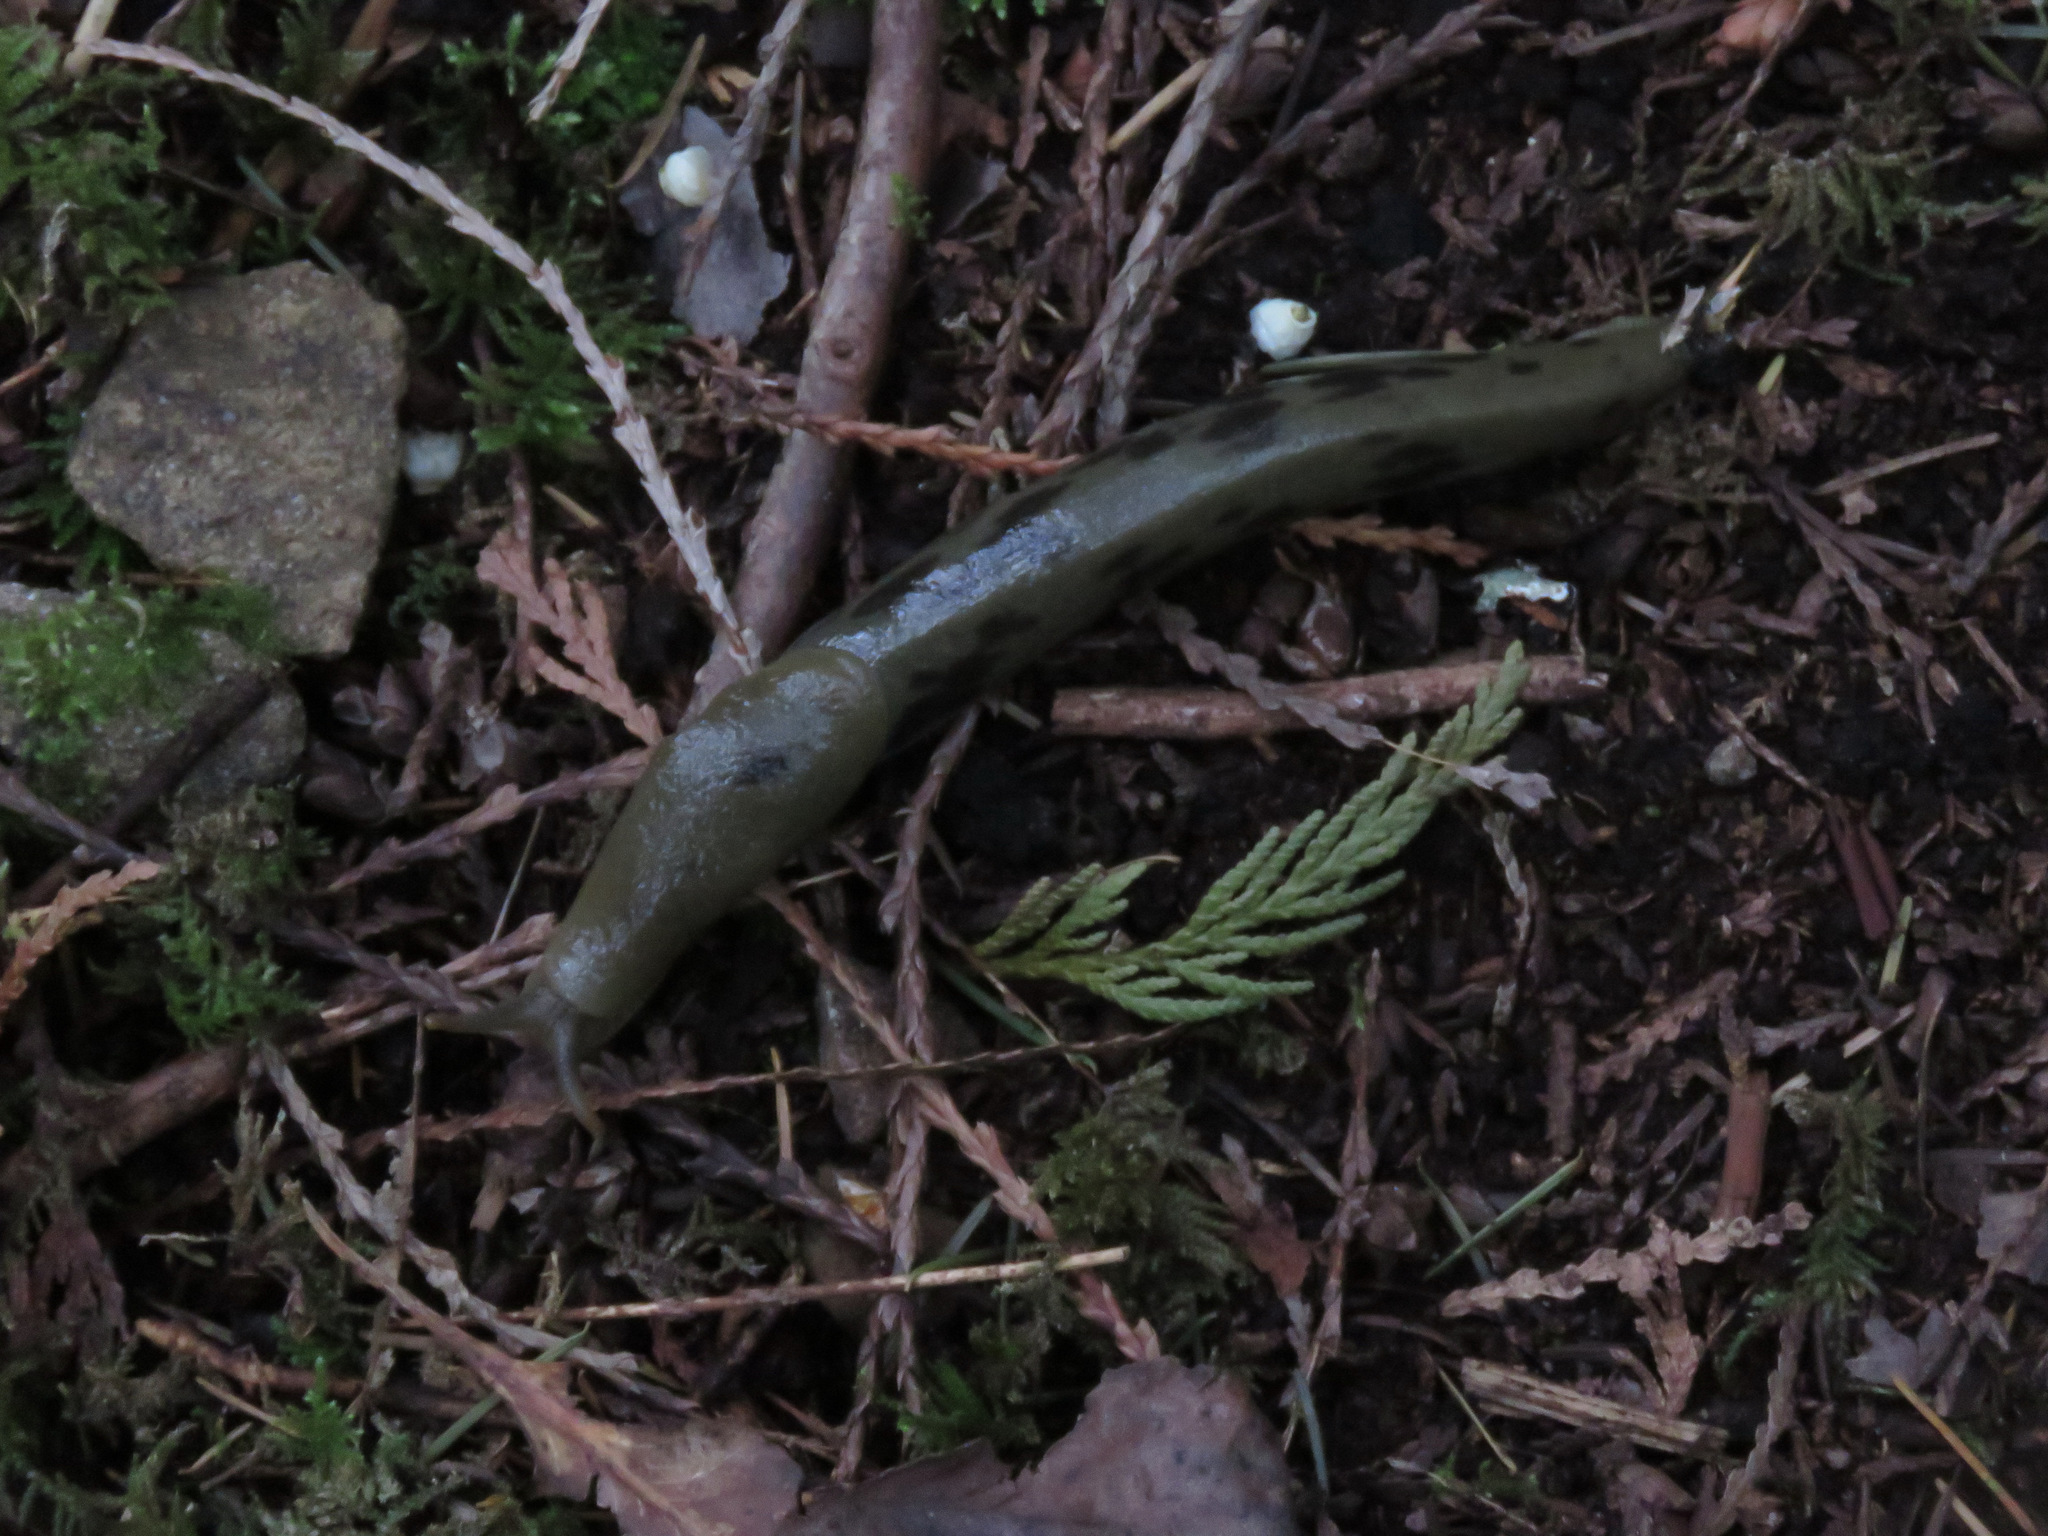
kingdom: Animalia
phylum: Mollusca
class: Gastropoda
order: Stylommatophora
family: Ariolimacidae
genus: Ariolimax
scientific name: Ariolimax columbianus
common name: Pacific banana slug
